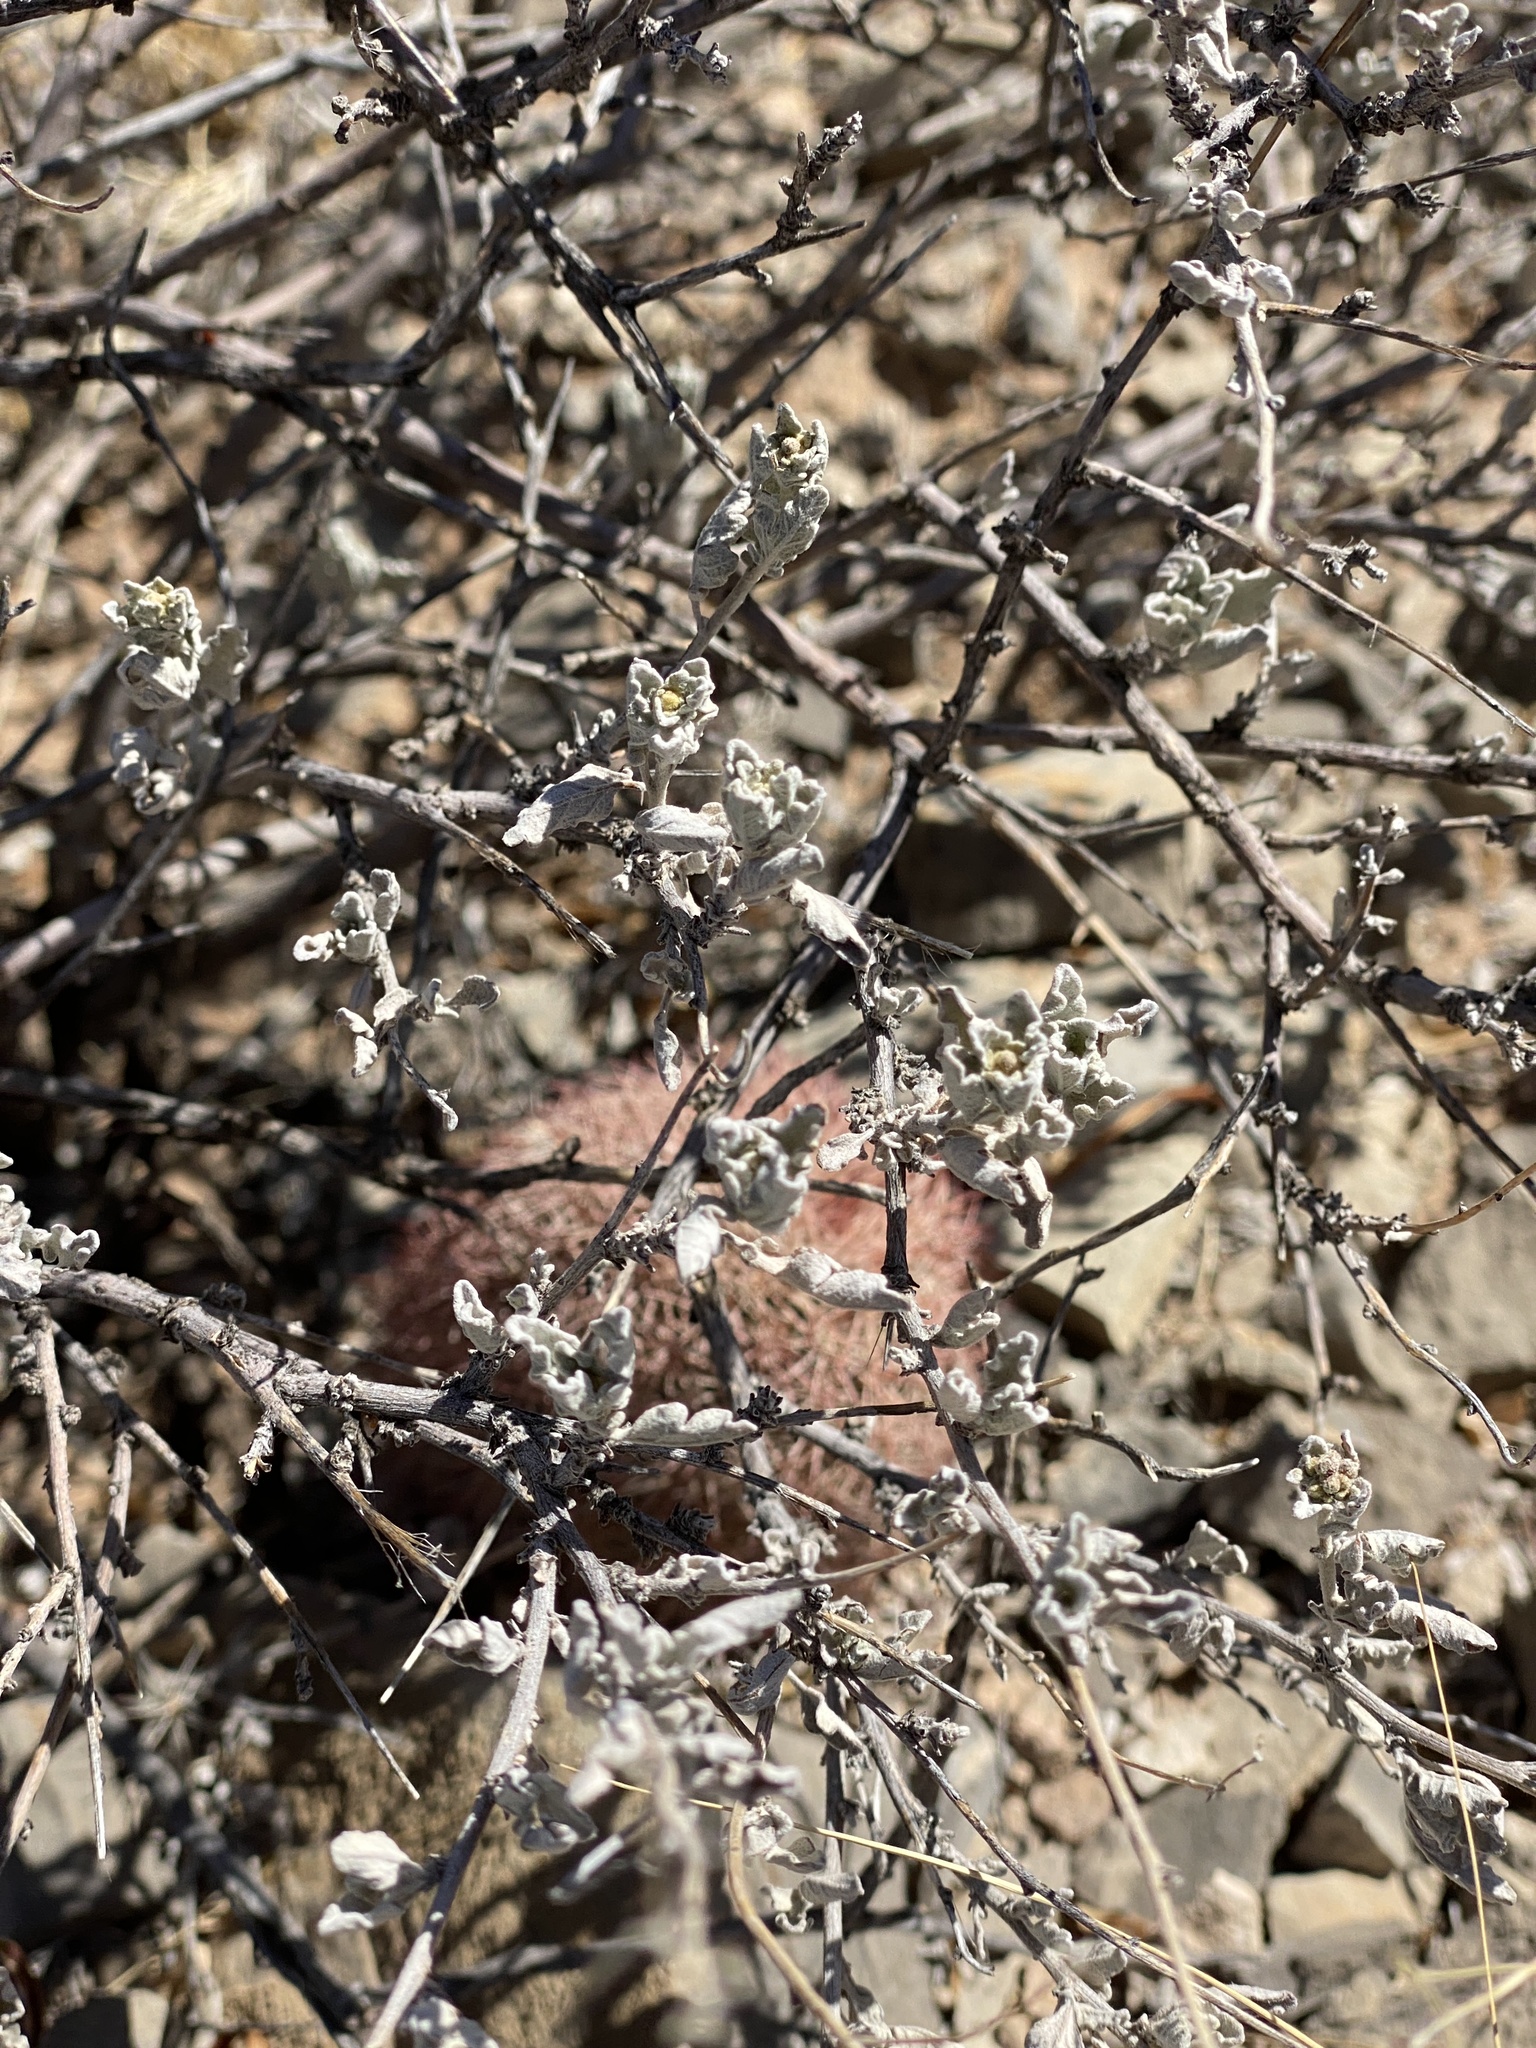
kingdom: Plantae
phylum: Tracheophyta
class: Magnoliopsida
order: Asterales
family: Asteraceae
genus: Parthenium
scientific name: Parthenium incanum
